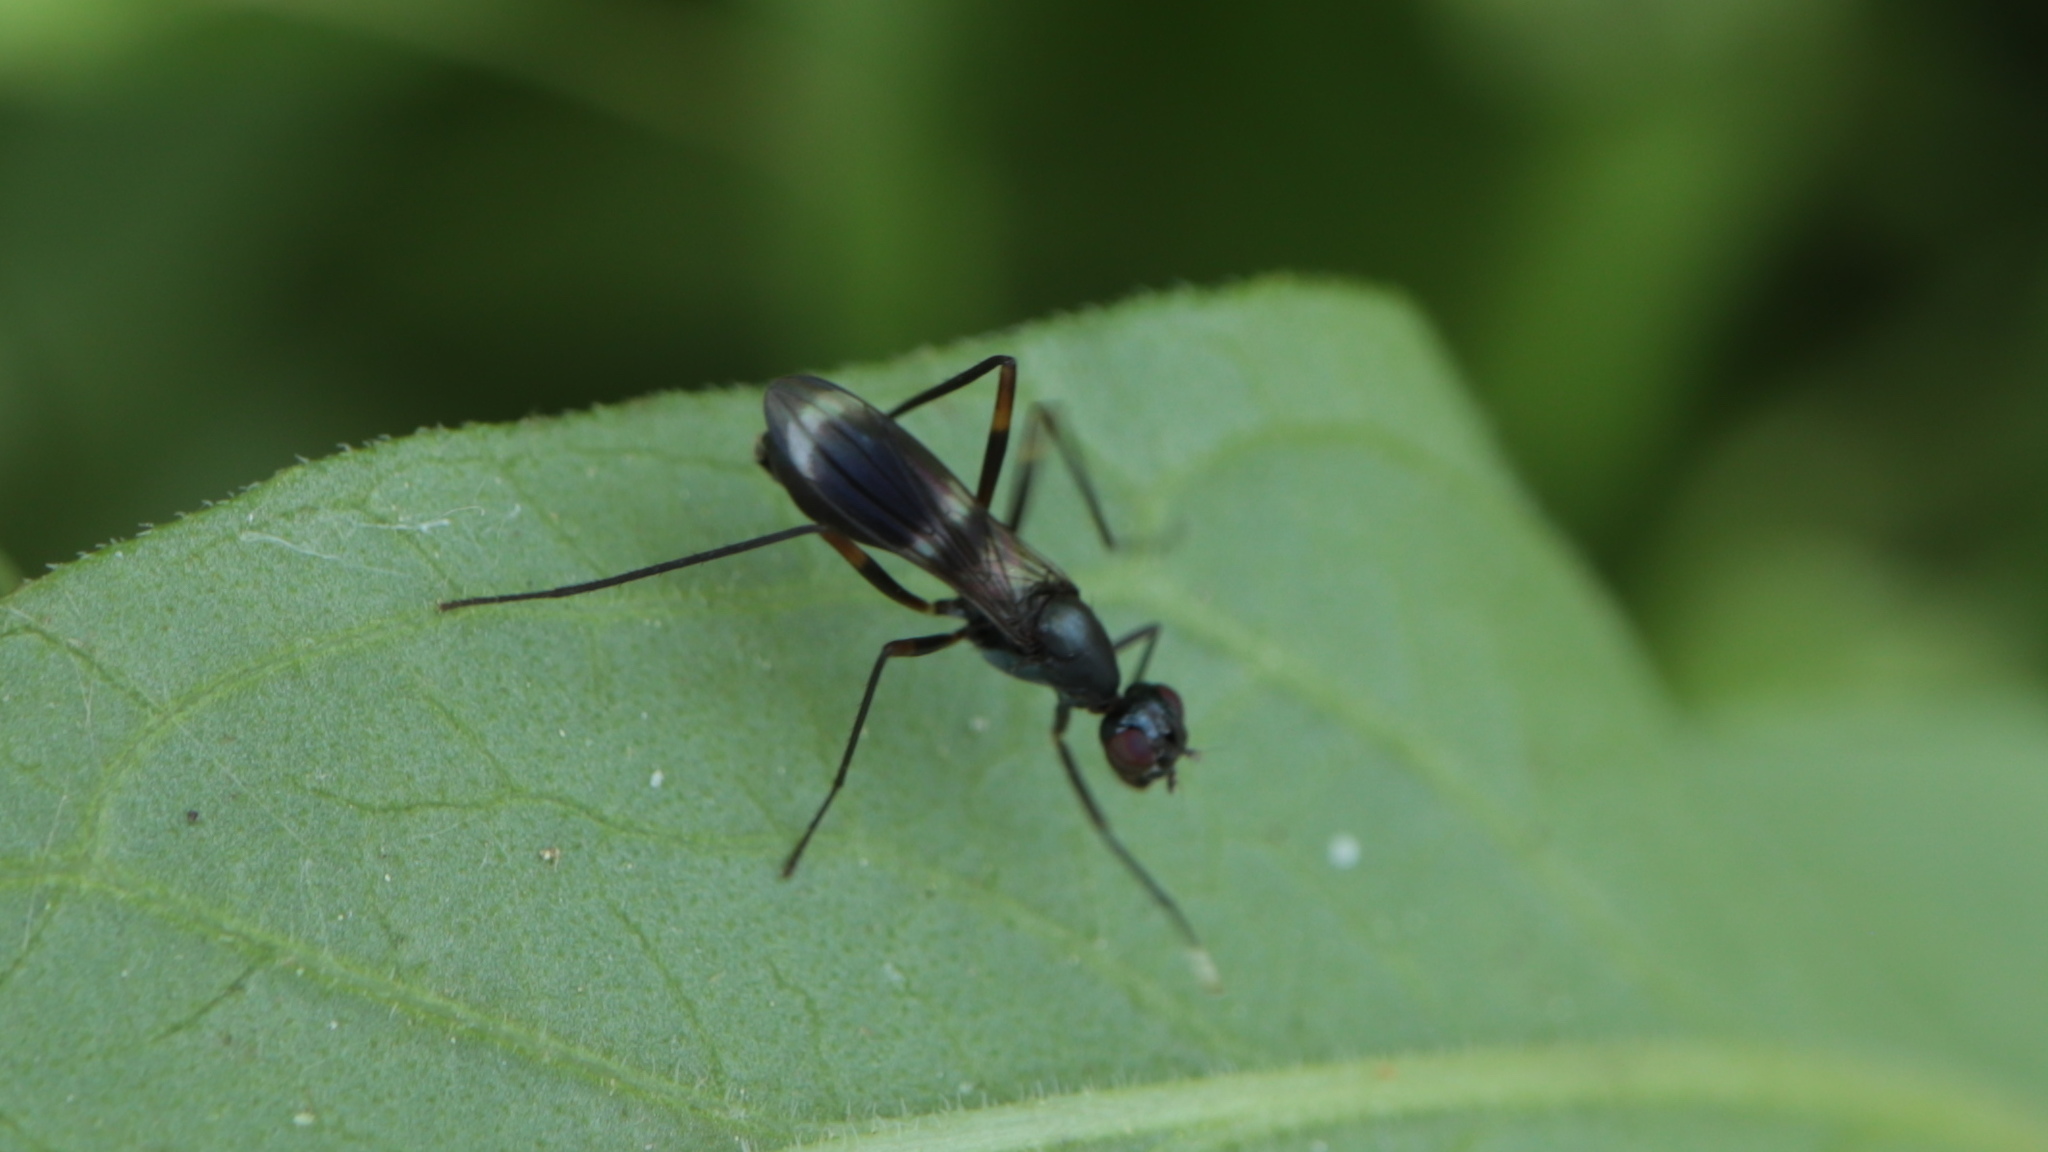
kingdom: Animalia
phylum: Arthropoda
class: Insecta
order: Diptera
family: Micropezidae
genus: Taeniaptera
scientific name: Taeniaptera trivittata
